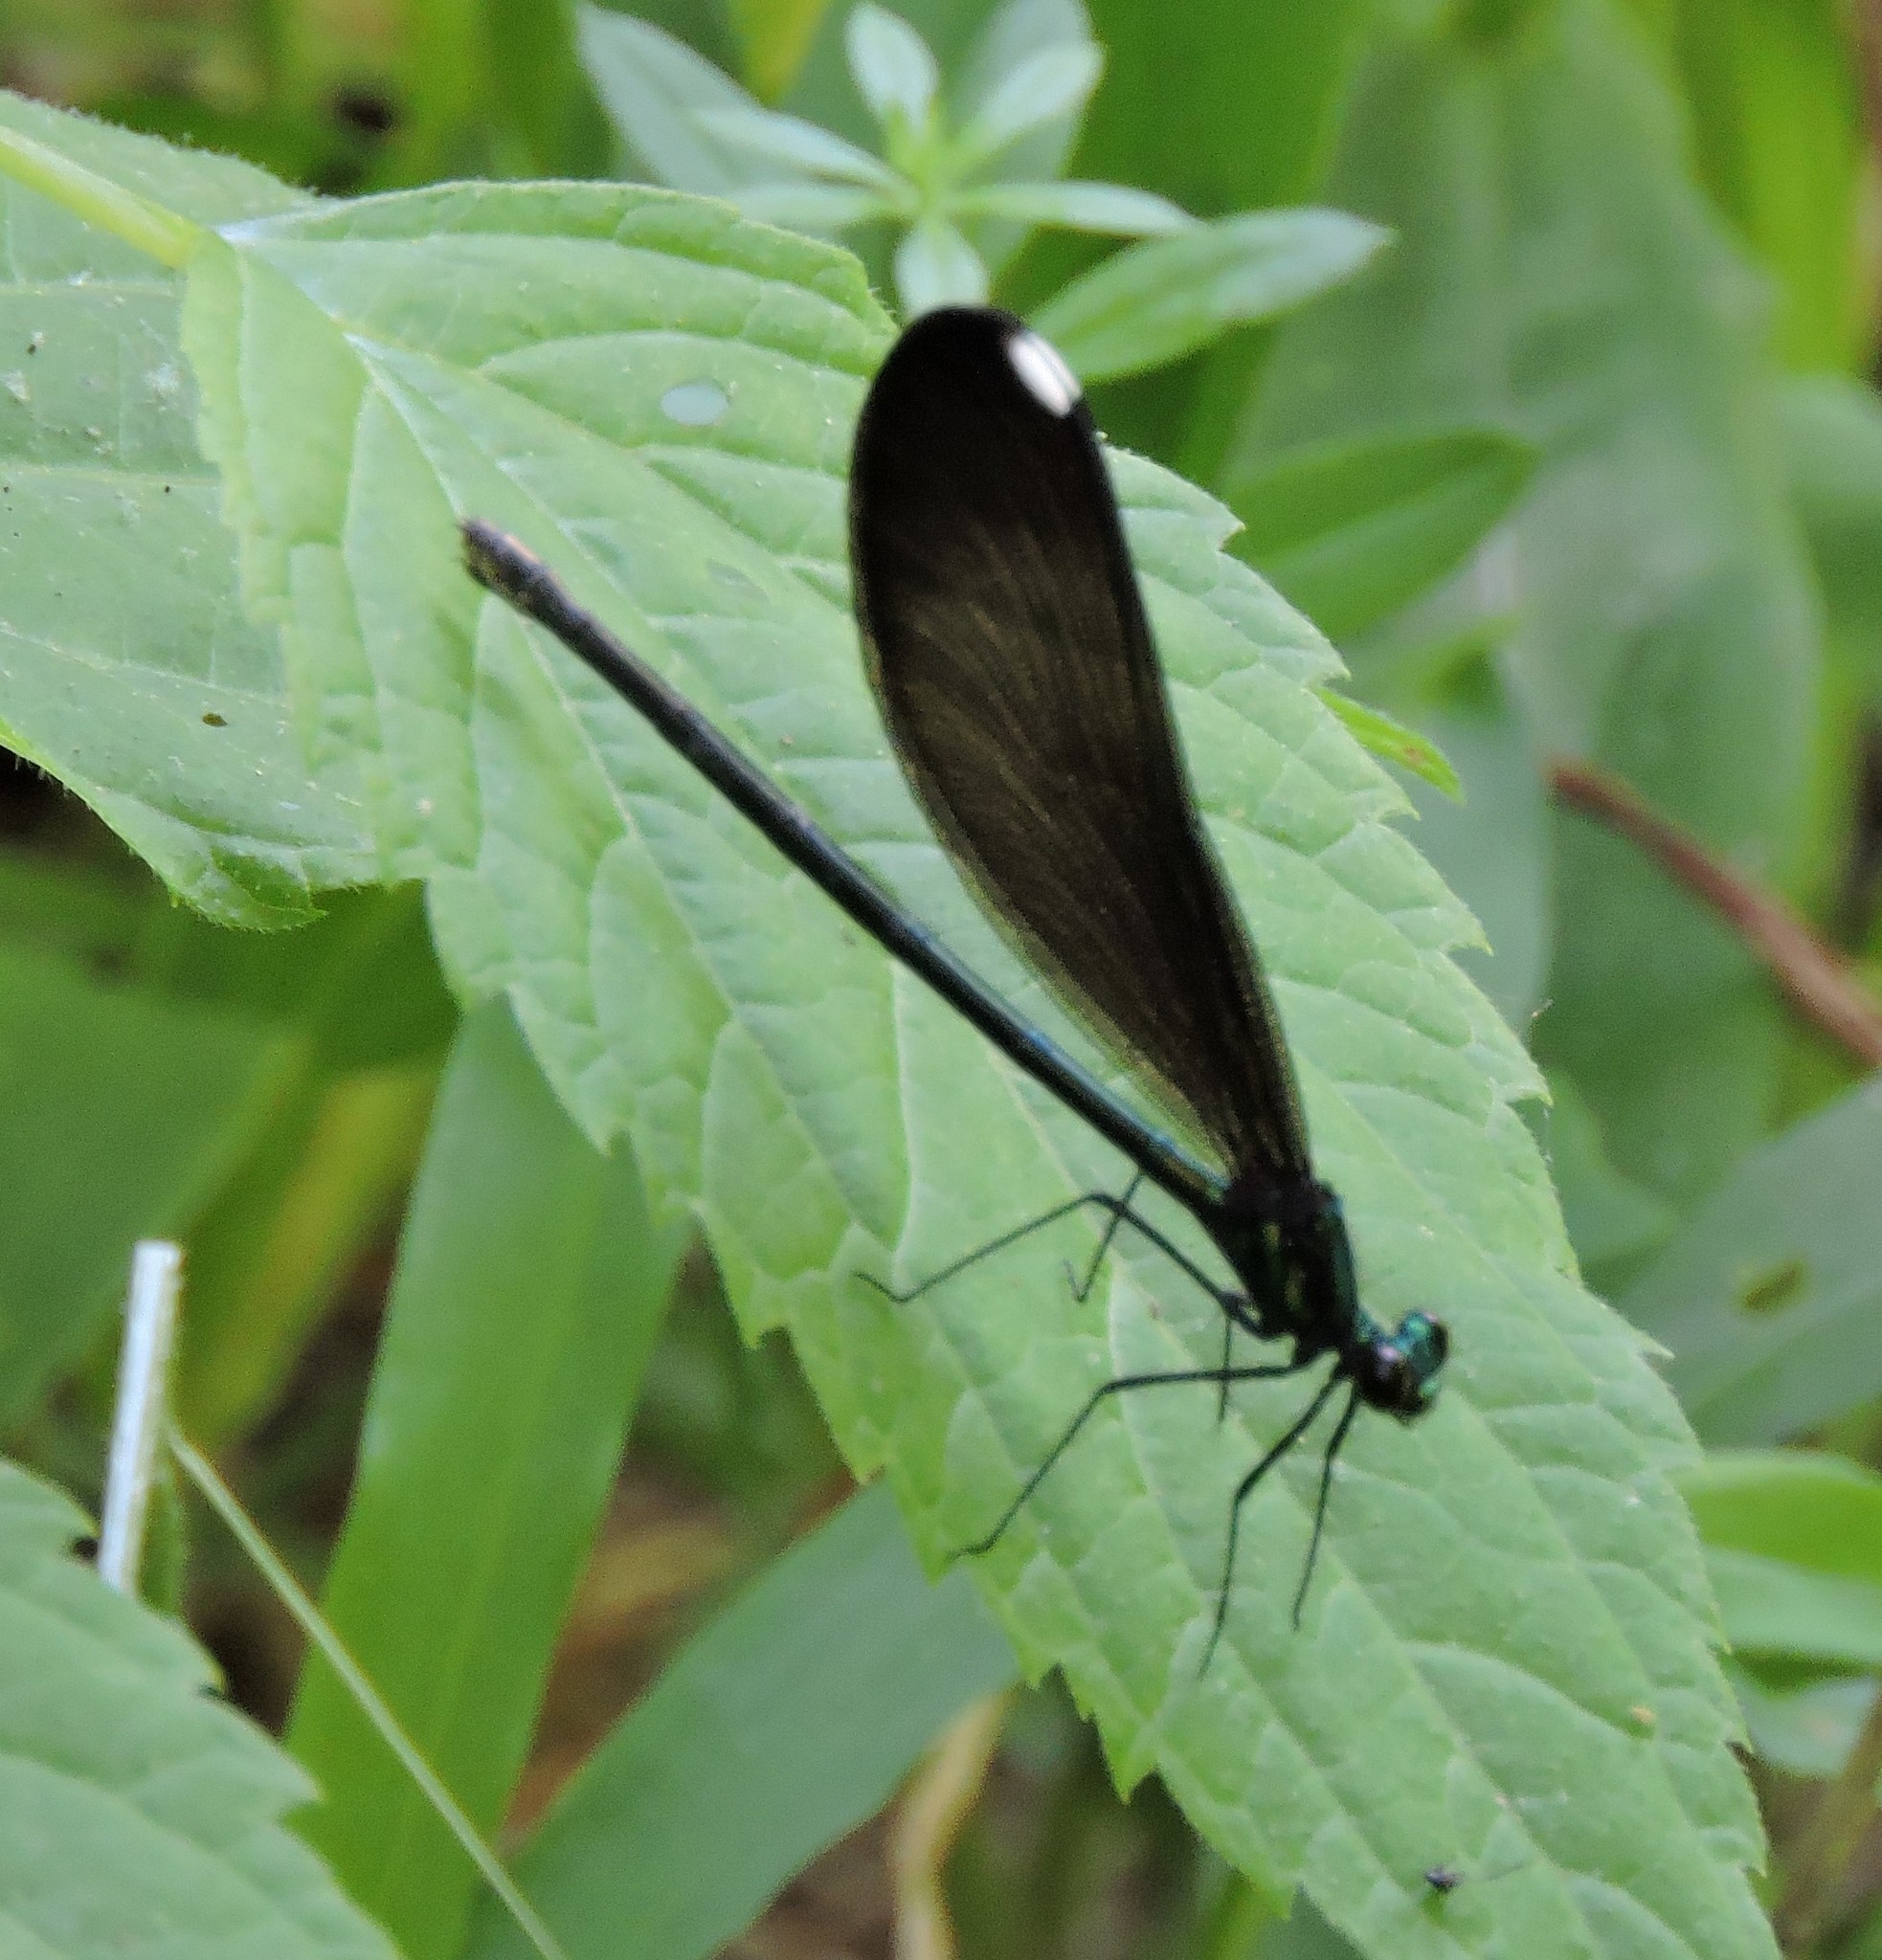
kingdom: Animalia
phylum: Arthropoda
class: Insecta
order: Odonata
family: Calopterygidae
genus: Calopteryx
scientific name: Calopteryx maculata
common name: Ebony jewelwing
